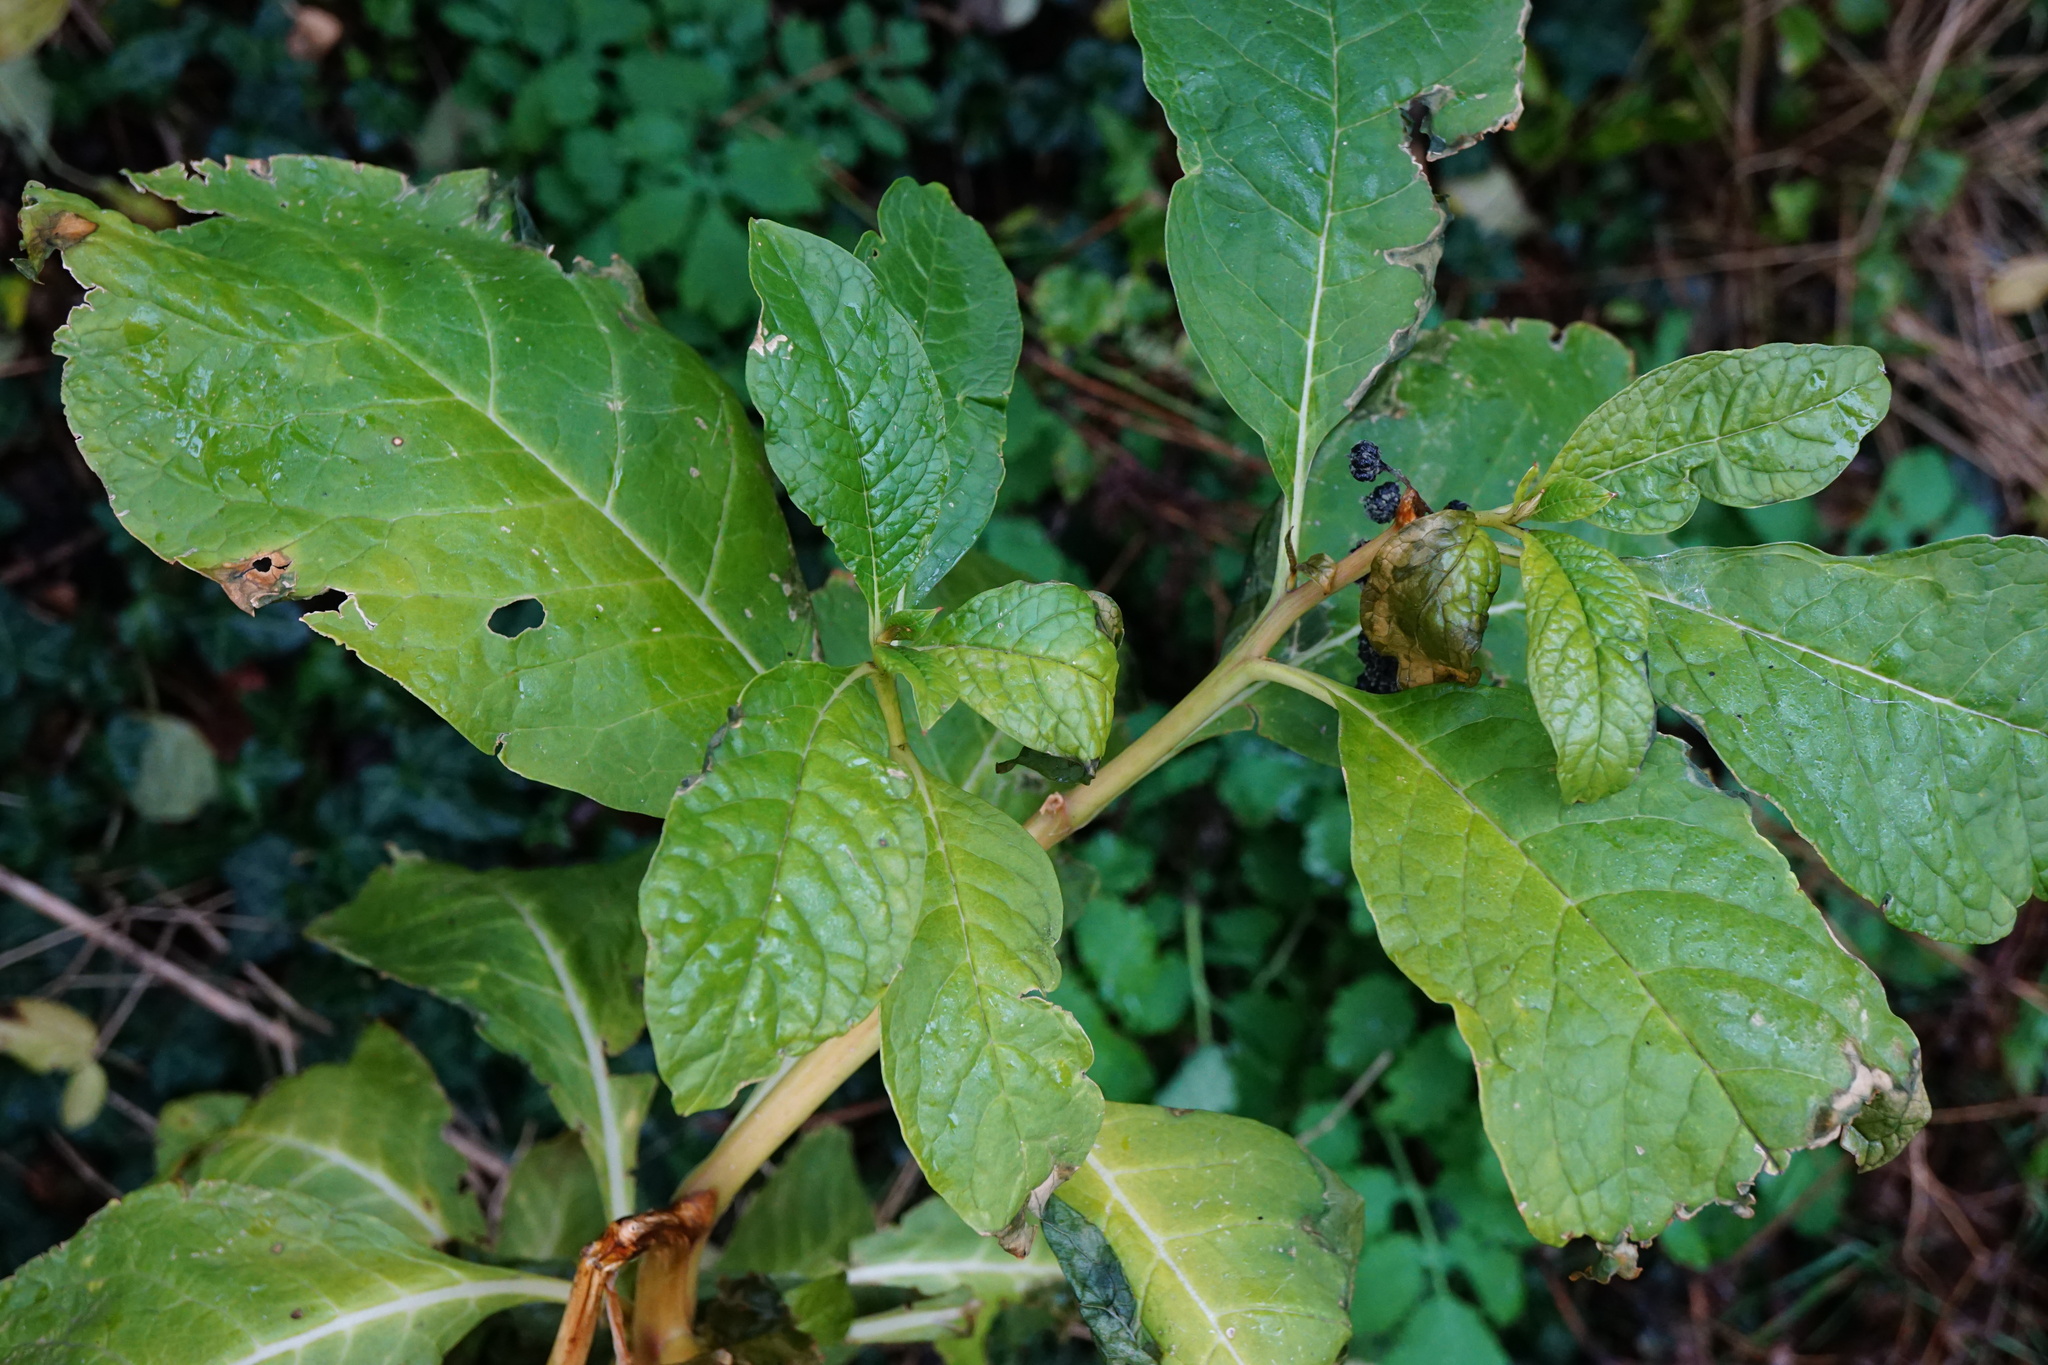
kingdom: Plantae
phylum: Tracheophyta
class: Magnoliopsida
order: Caryophyllales
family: Phytolaccaceae
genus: Phytolacca
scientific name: Phytolacca acinosa
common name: Indian pokeweed
